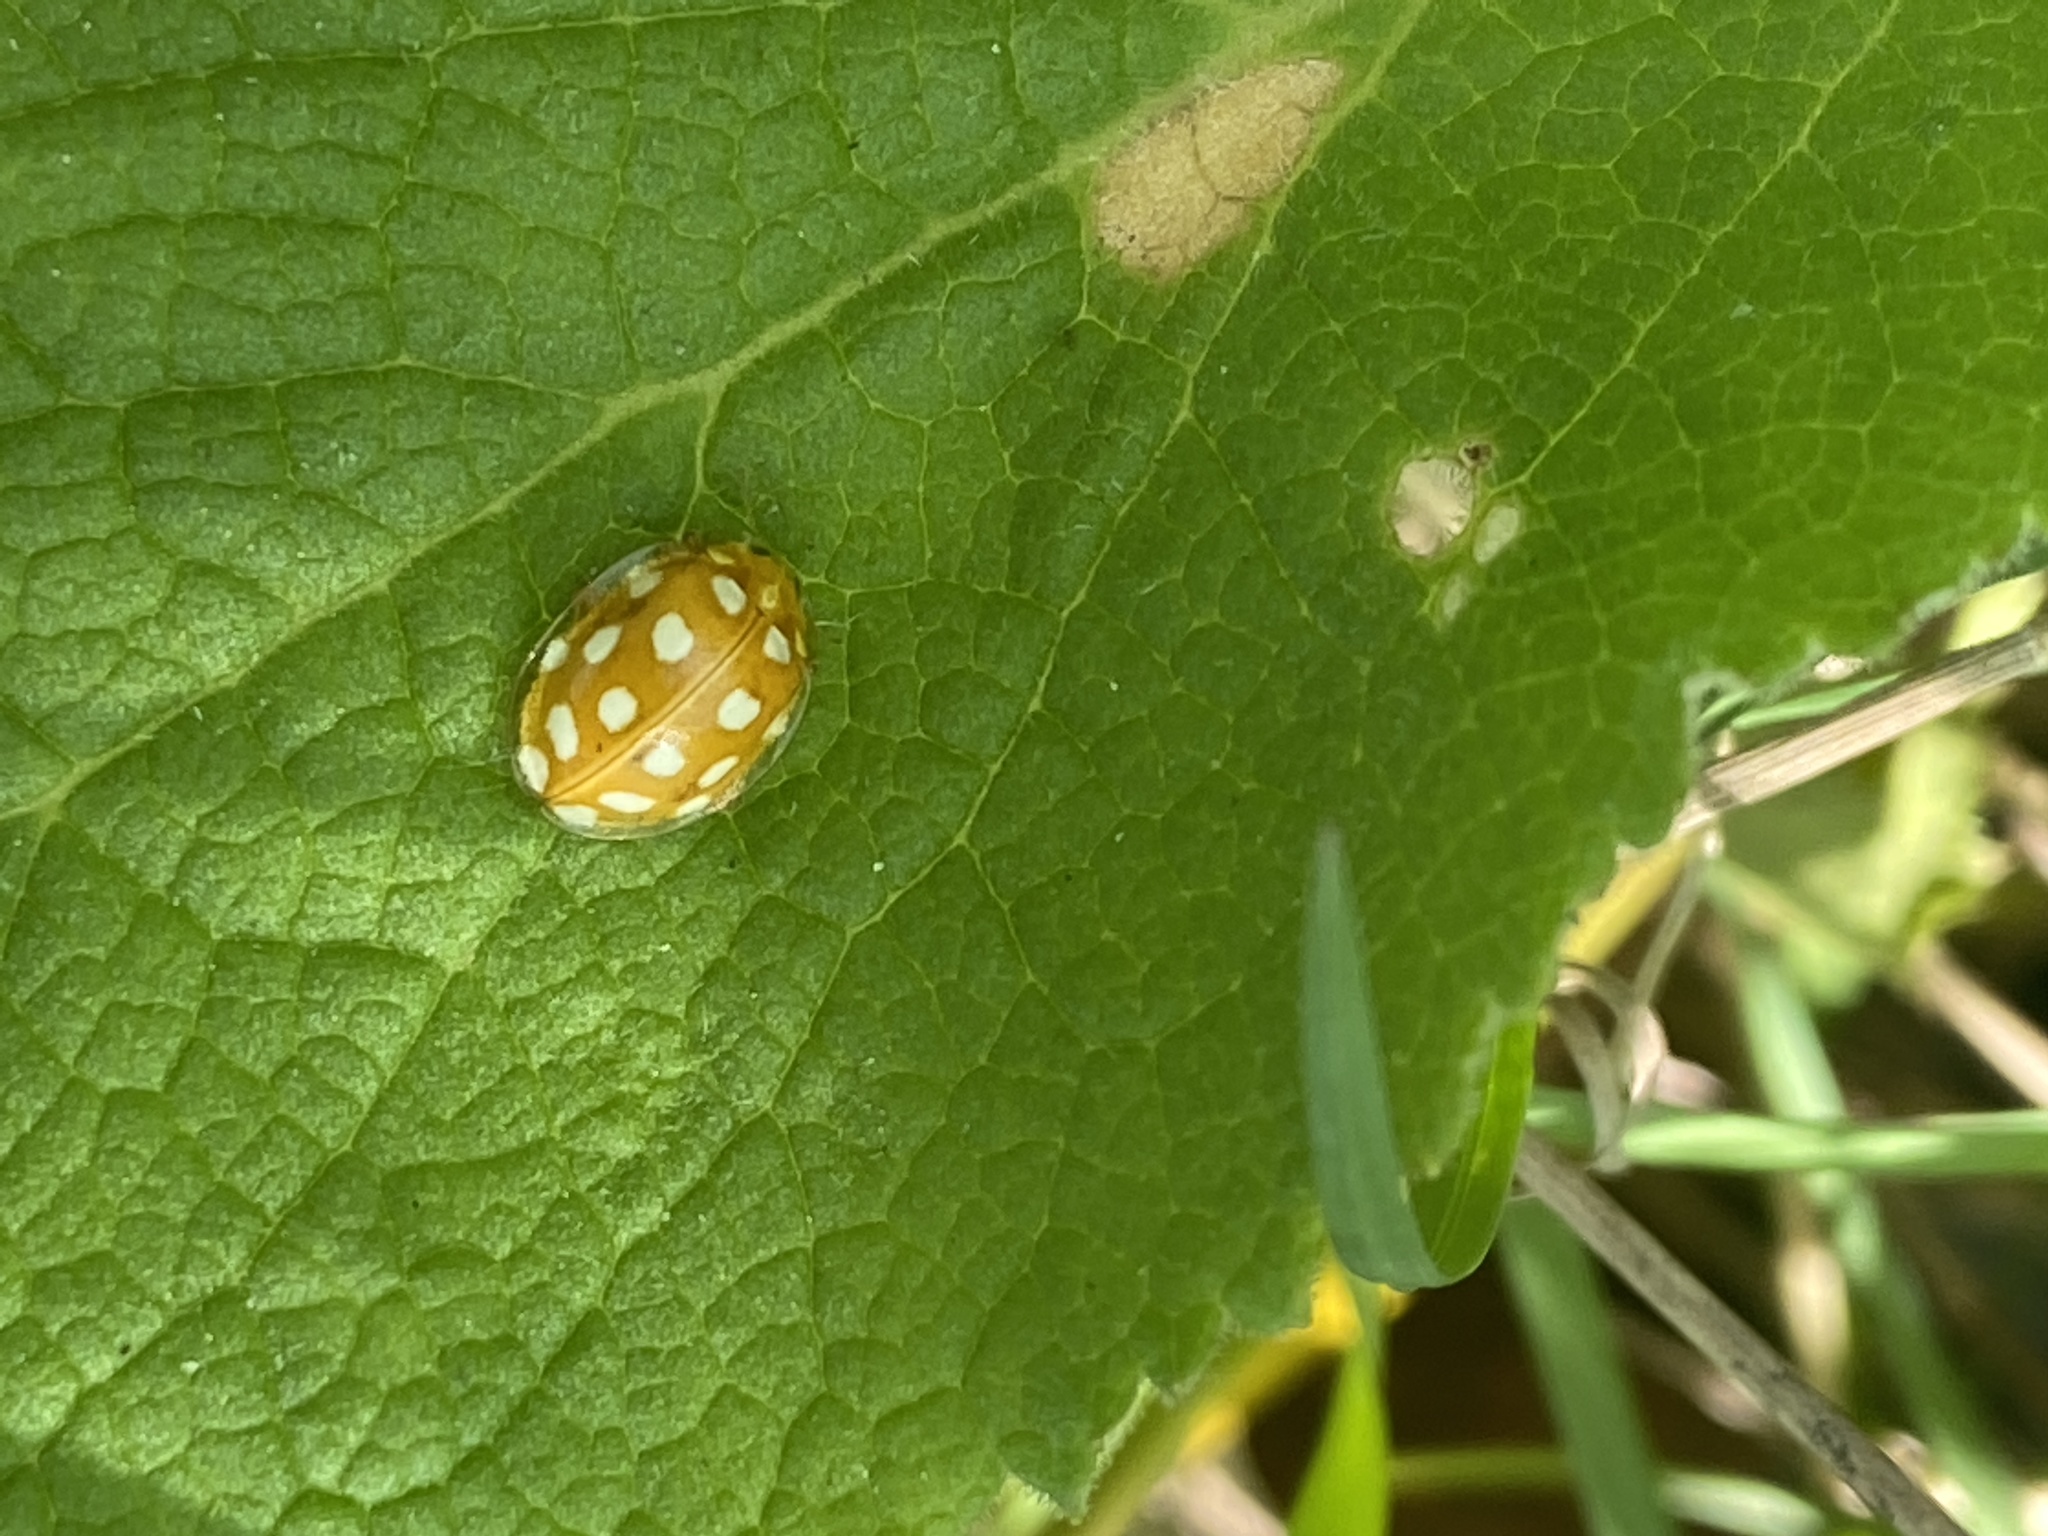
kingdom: Animalia
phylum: Arthropoda
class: Insecta
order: Coleoptera
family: Coccinellidae
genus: Halyzia
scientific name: Halyzia sedecimguttata
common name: Orange ladybird
